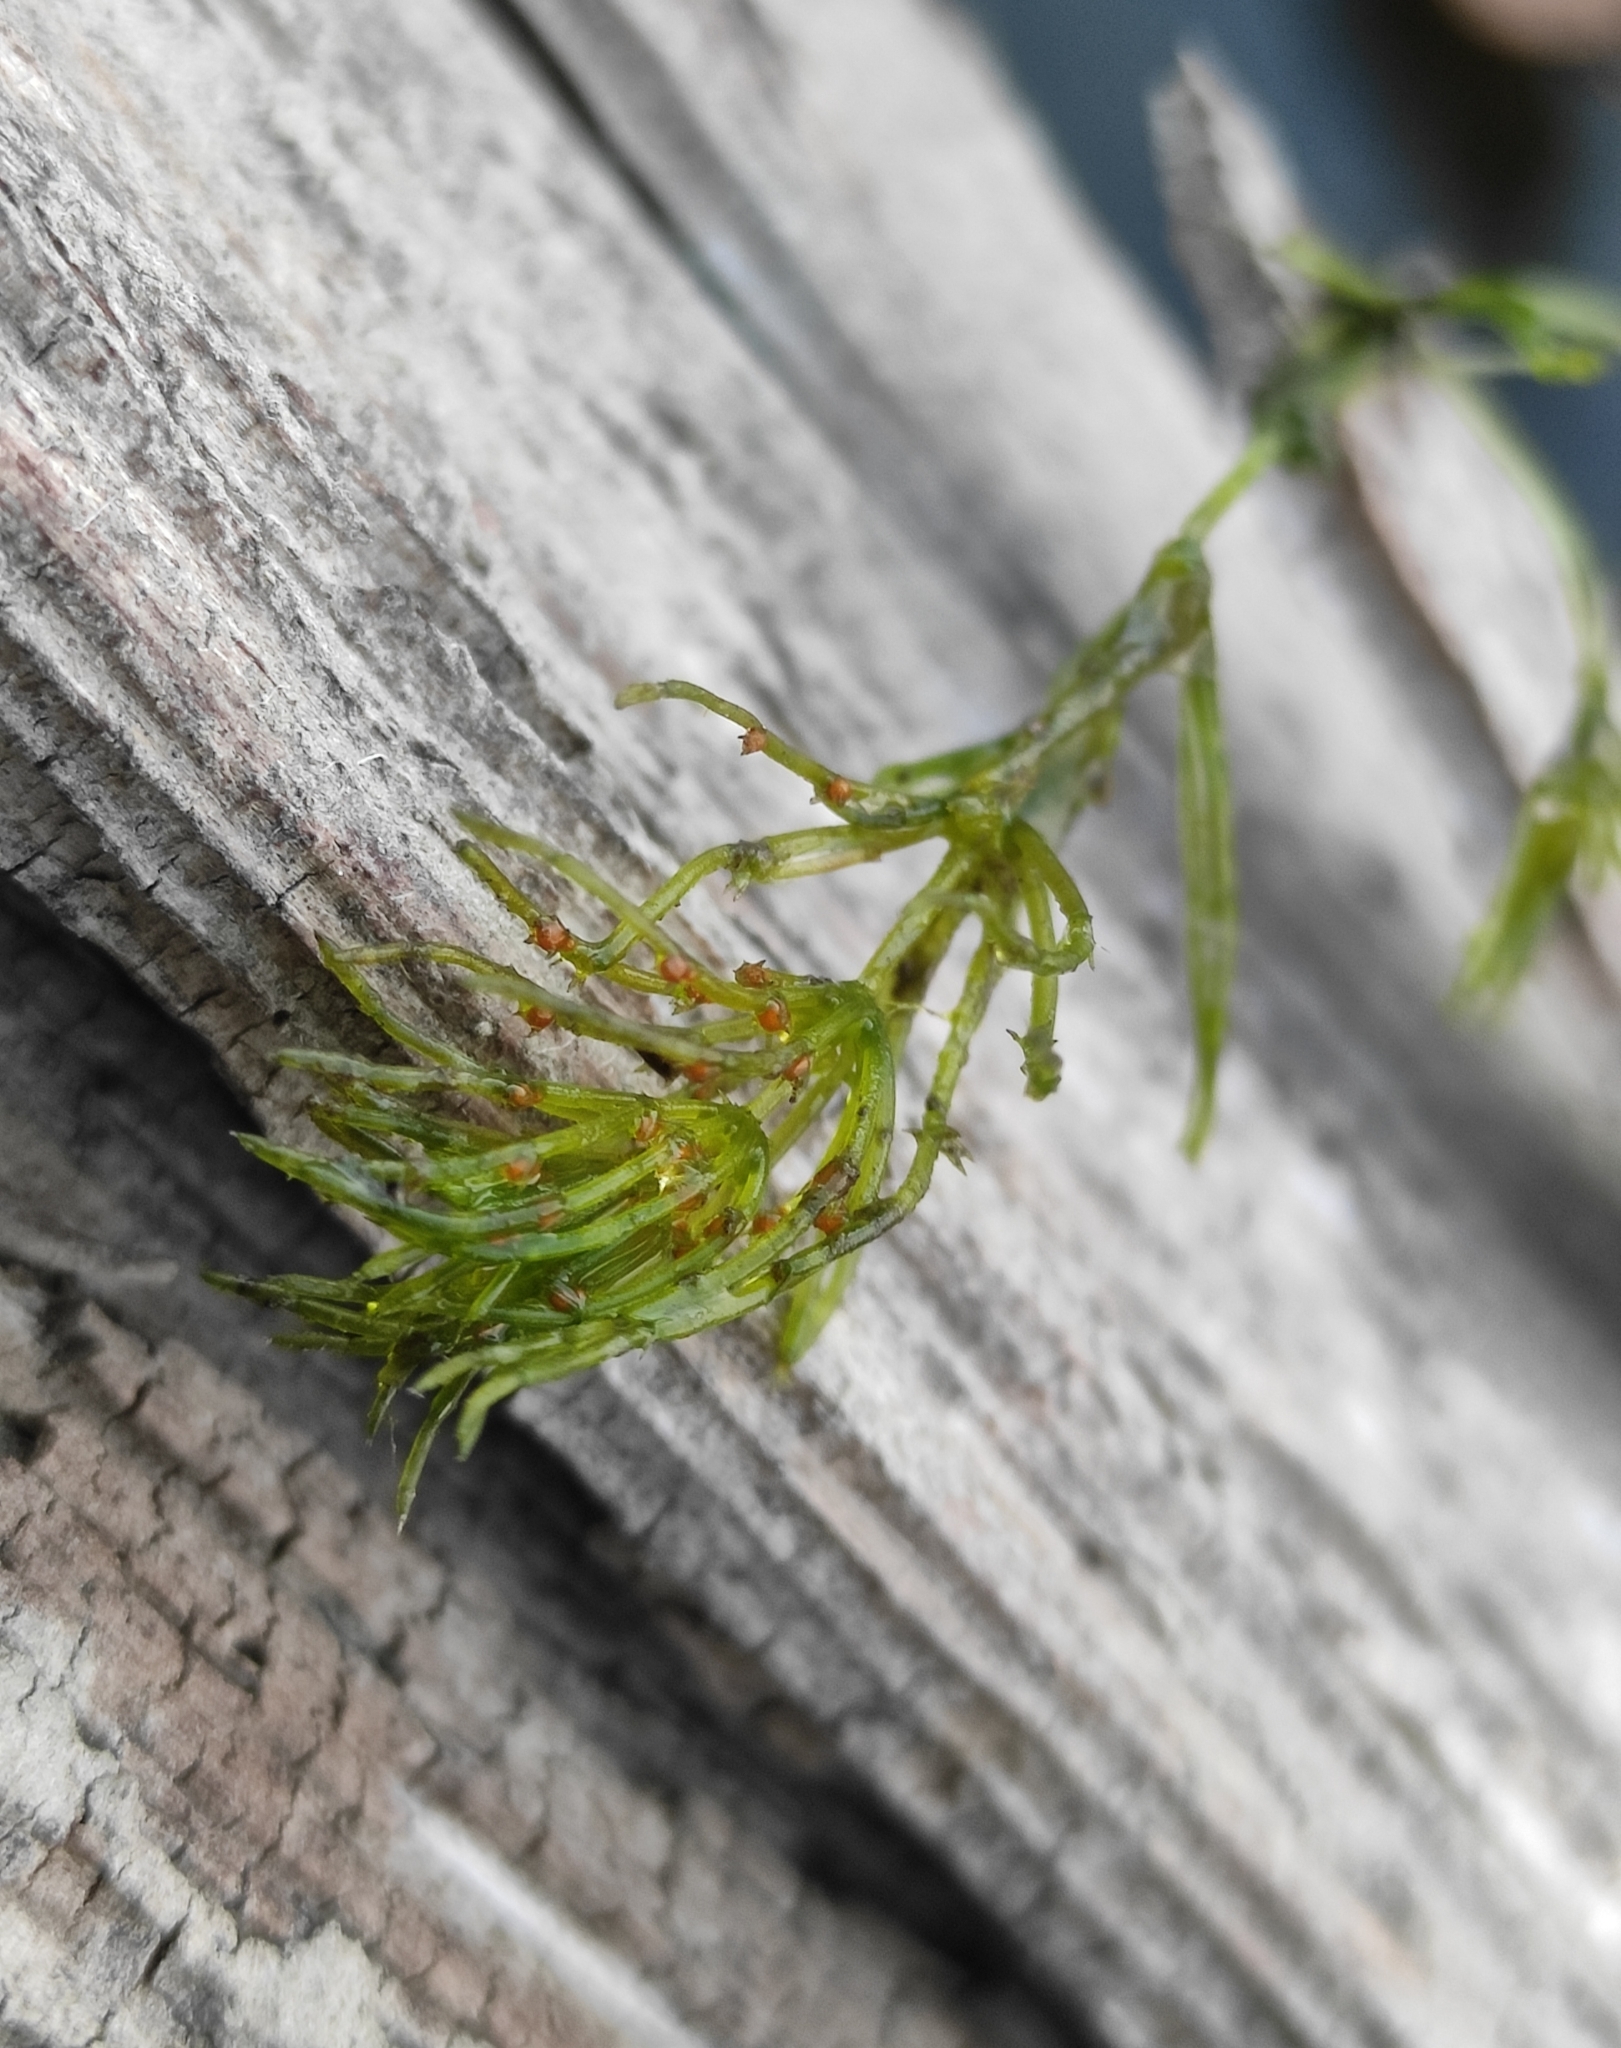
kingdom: Plantae
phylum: Charophyta
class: Charophyceae
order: Charales
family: Characeae
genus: Chara
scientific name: Chara braunii
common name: Braun's stonewort
